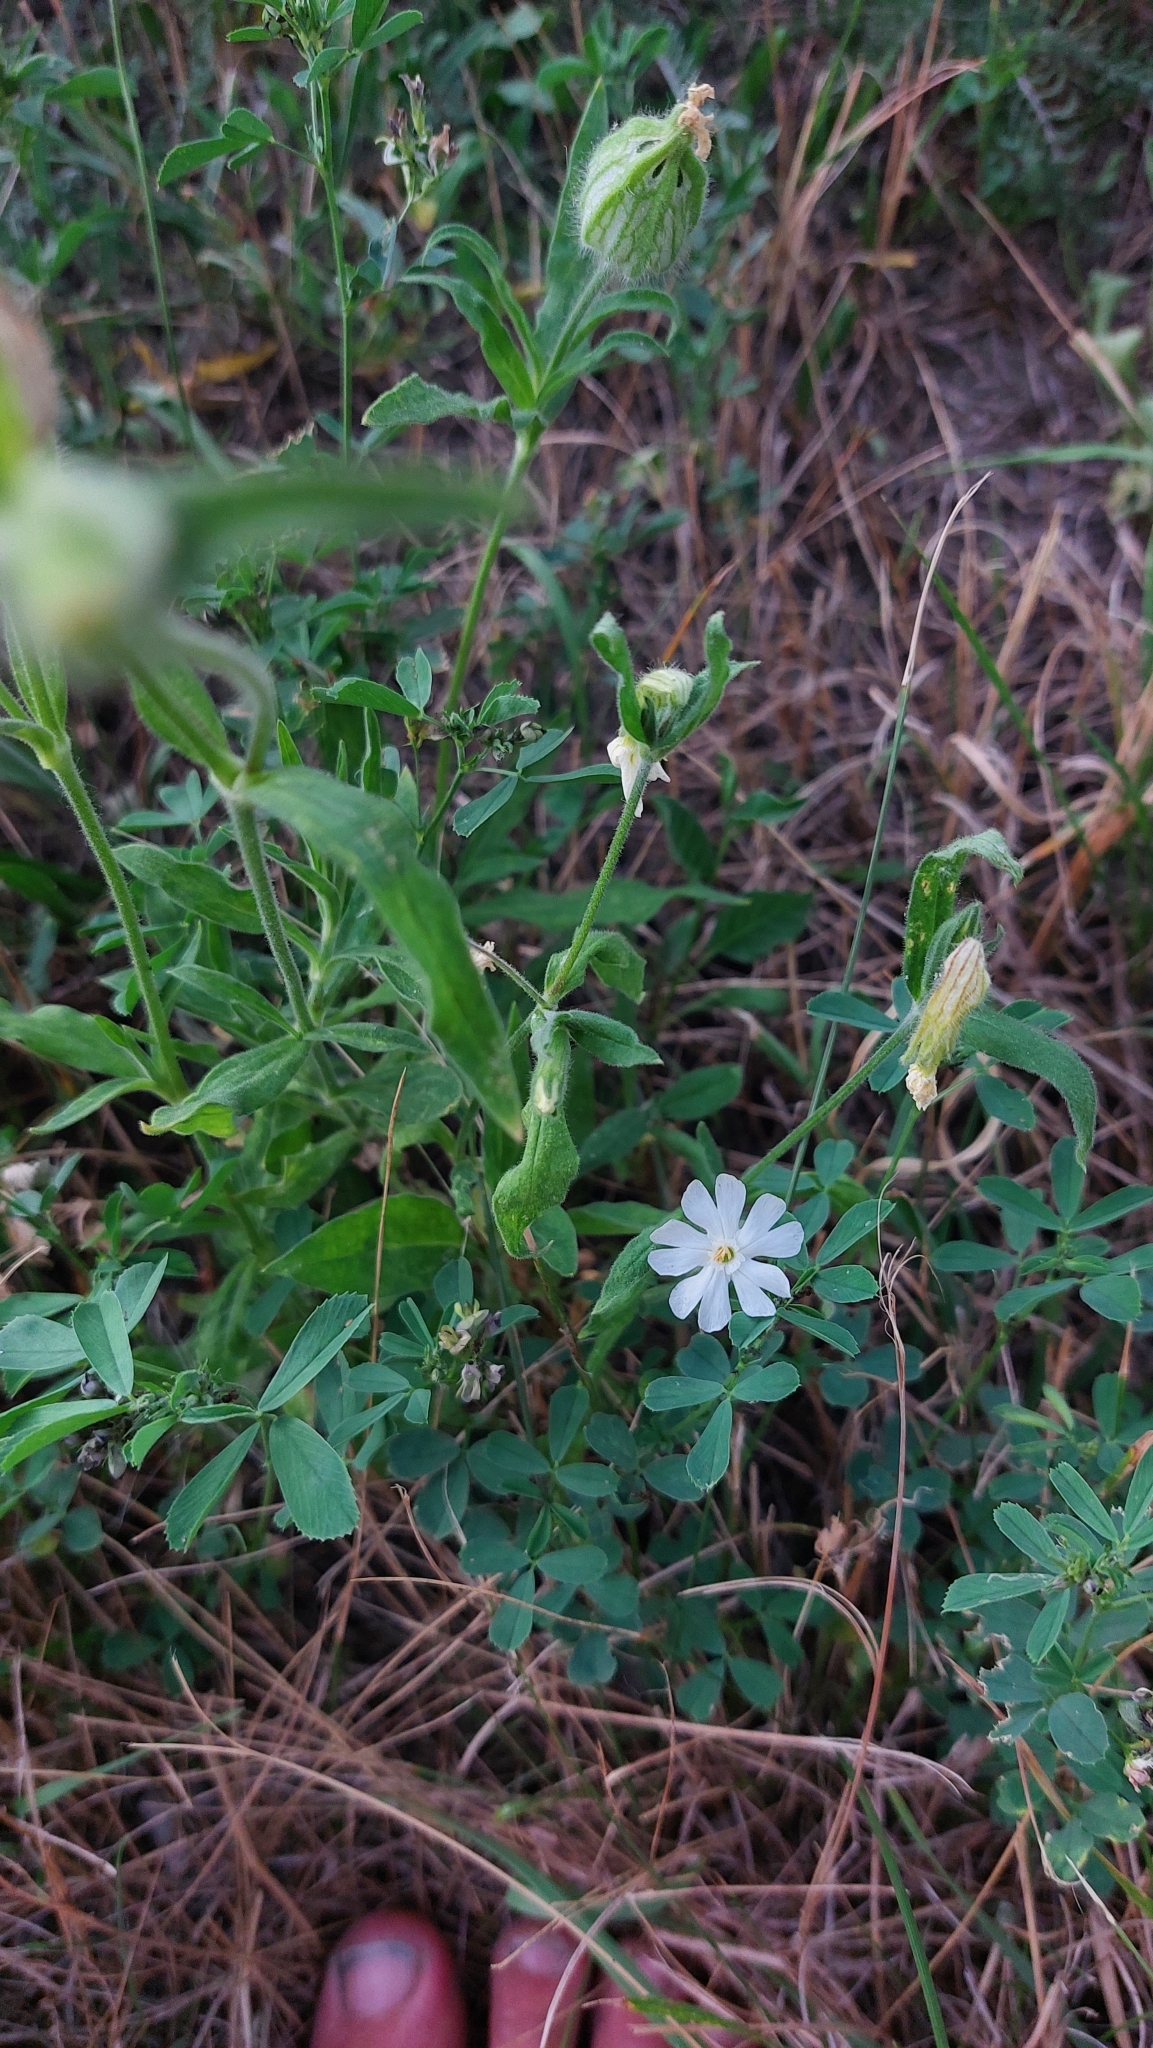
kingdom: Plantae
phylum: Tracheophyta
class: Magnoliopsida
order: Caryophyllales
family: Caryophyllaceae
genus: Silene
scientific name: Silene latifolia
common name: White campion
